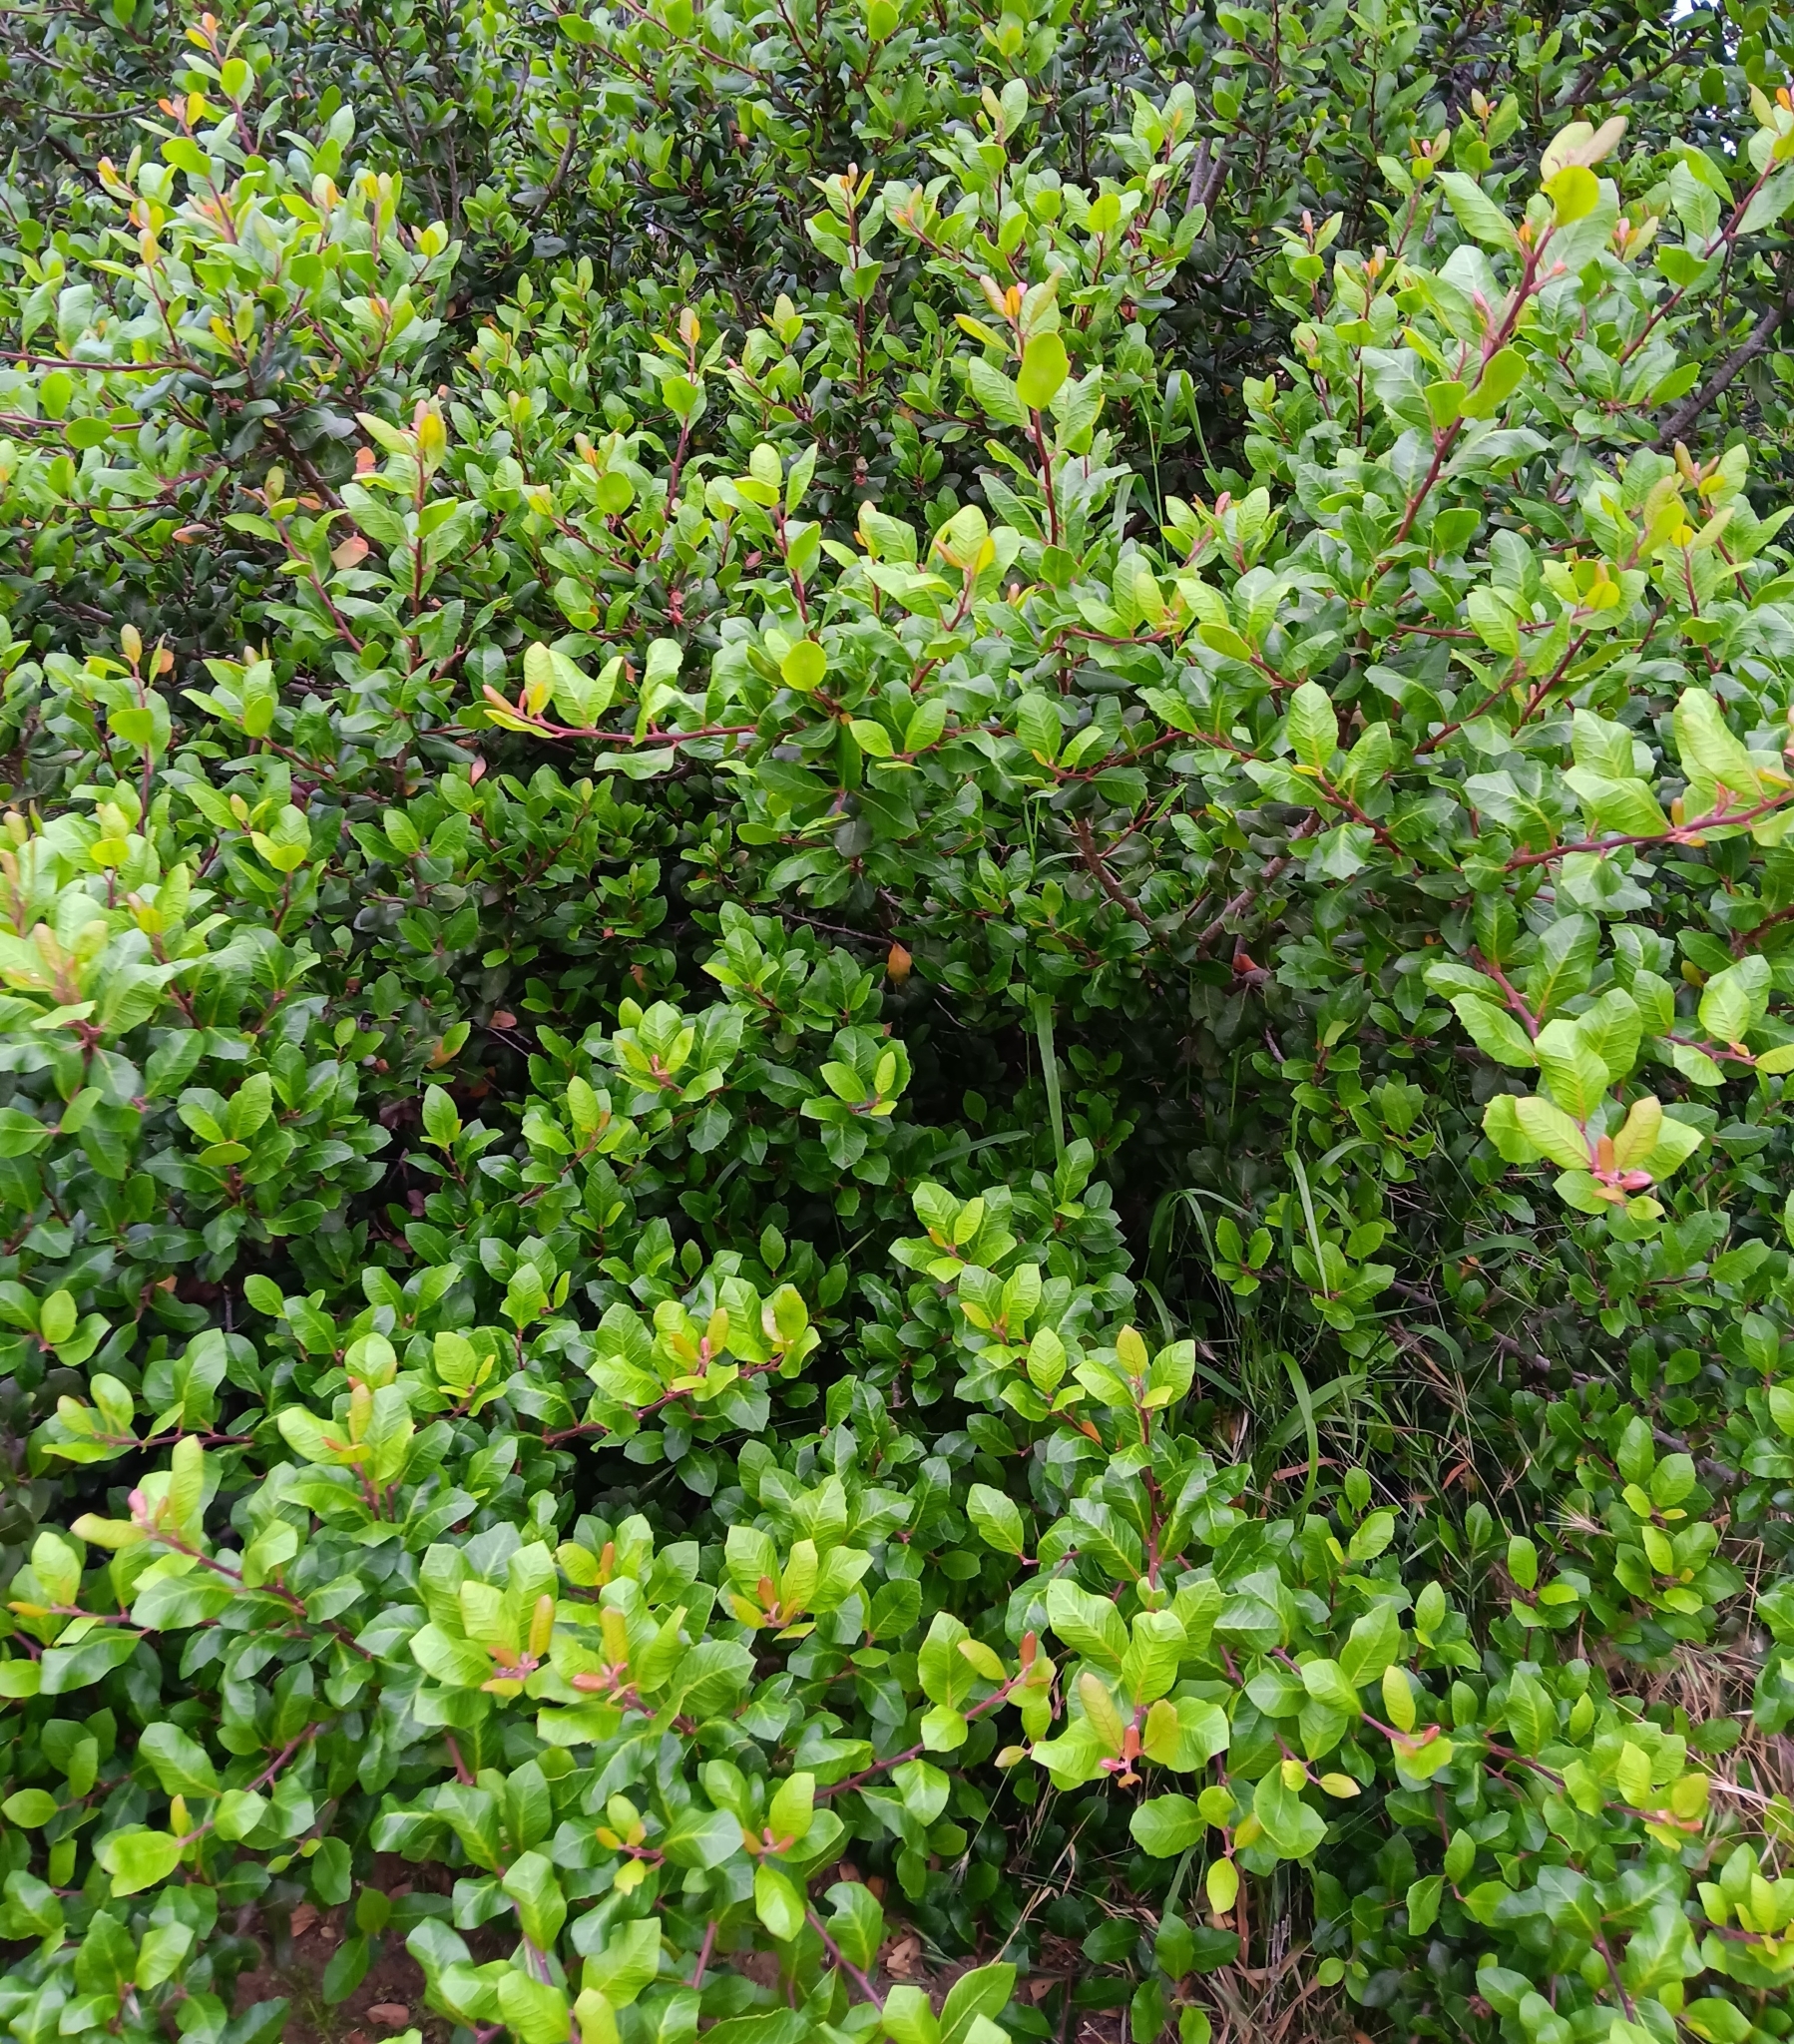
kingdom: Plantae
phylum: Tracheophyta
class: Magnoliopsida
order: Sapindales
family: Anacardiaceae
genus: Rhus
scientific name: Rhus integrifolia
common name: Lemonade sumac
